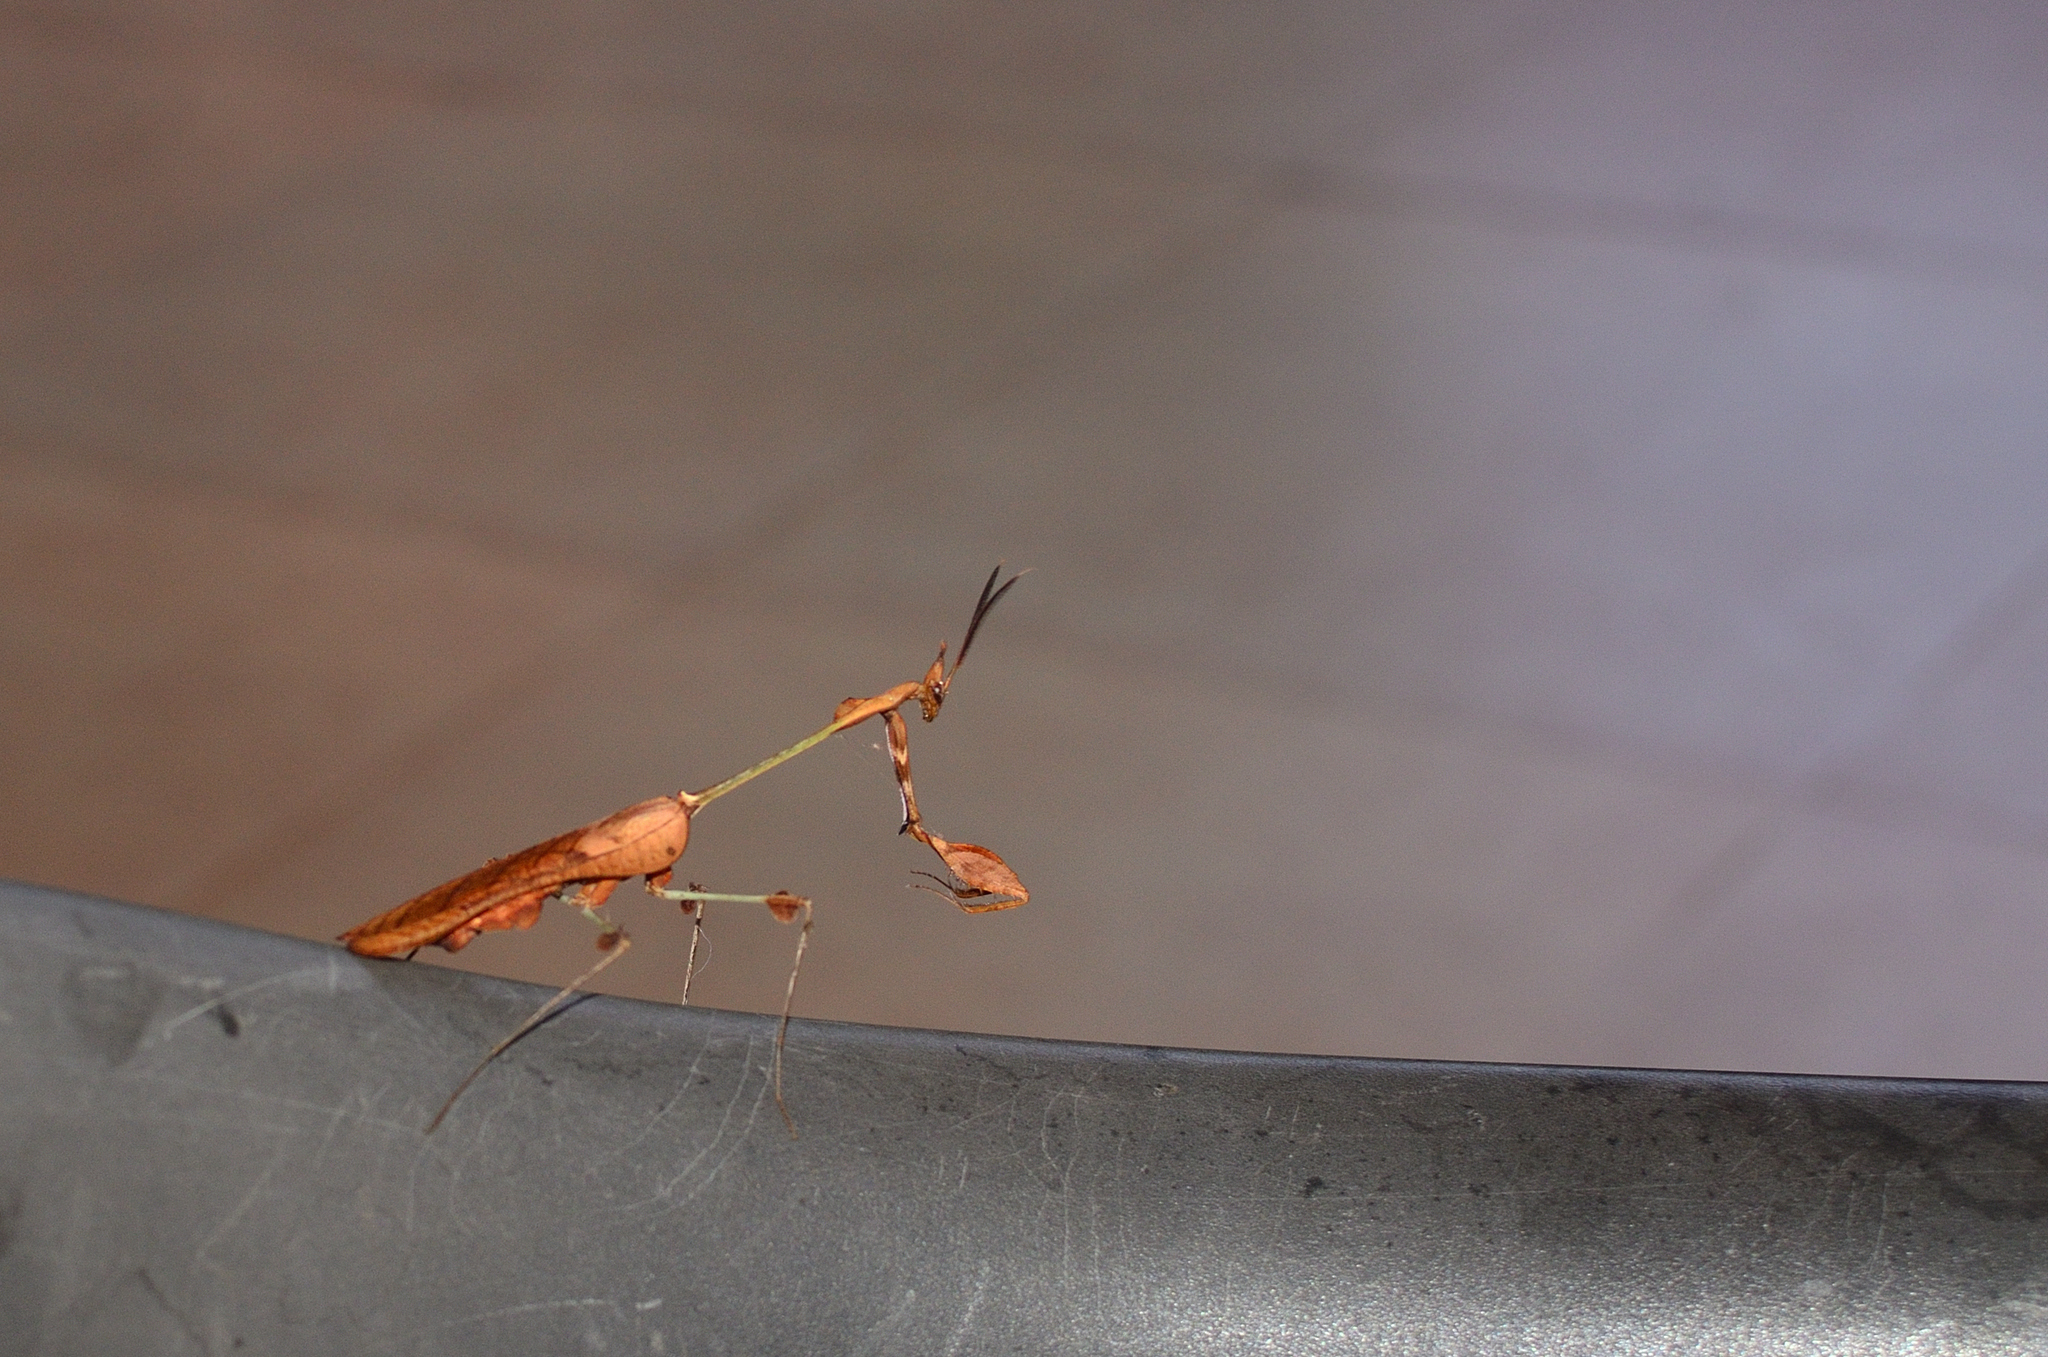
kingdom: Animalia
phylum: Arthropoda
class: Insecta
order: Mantodea
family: Empusidae
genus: Gongylus
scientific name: Gongylus gongylodes
